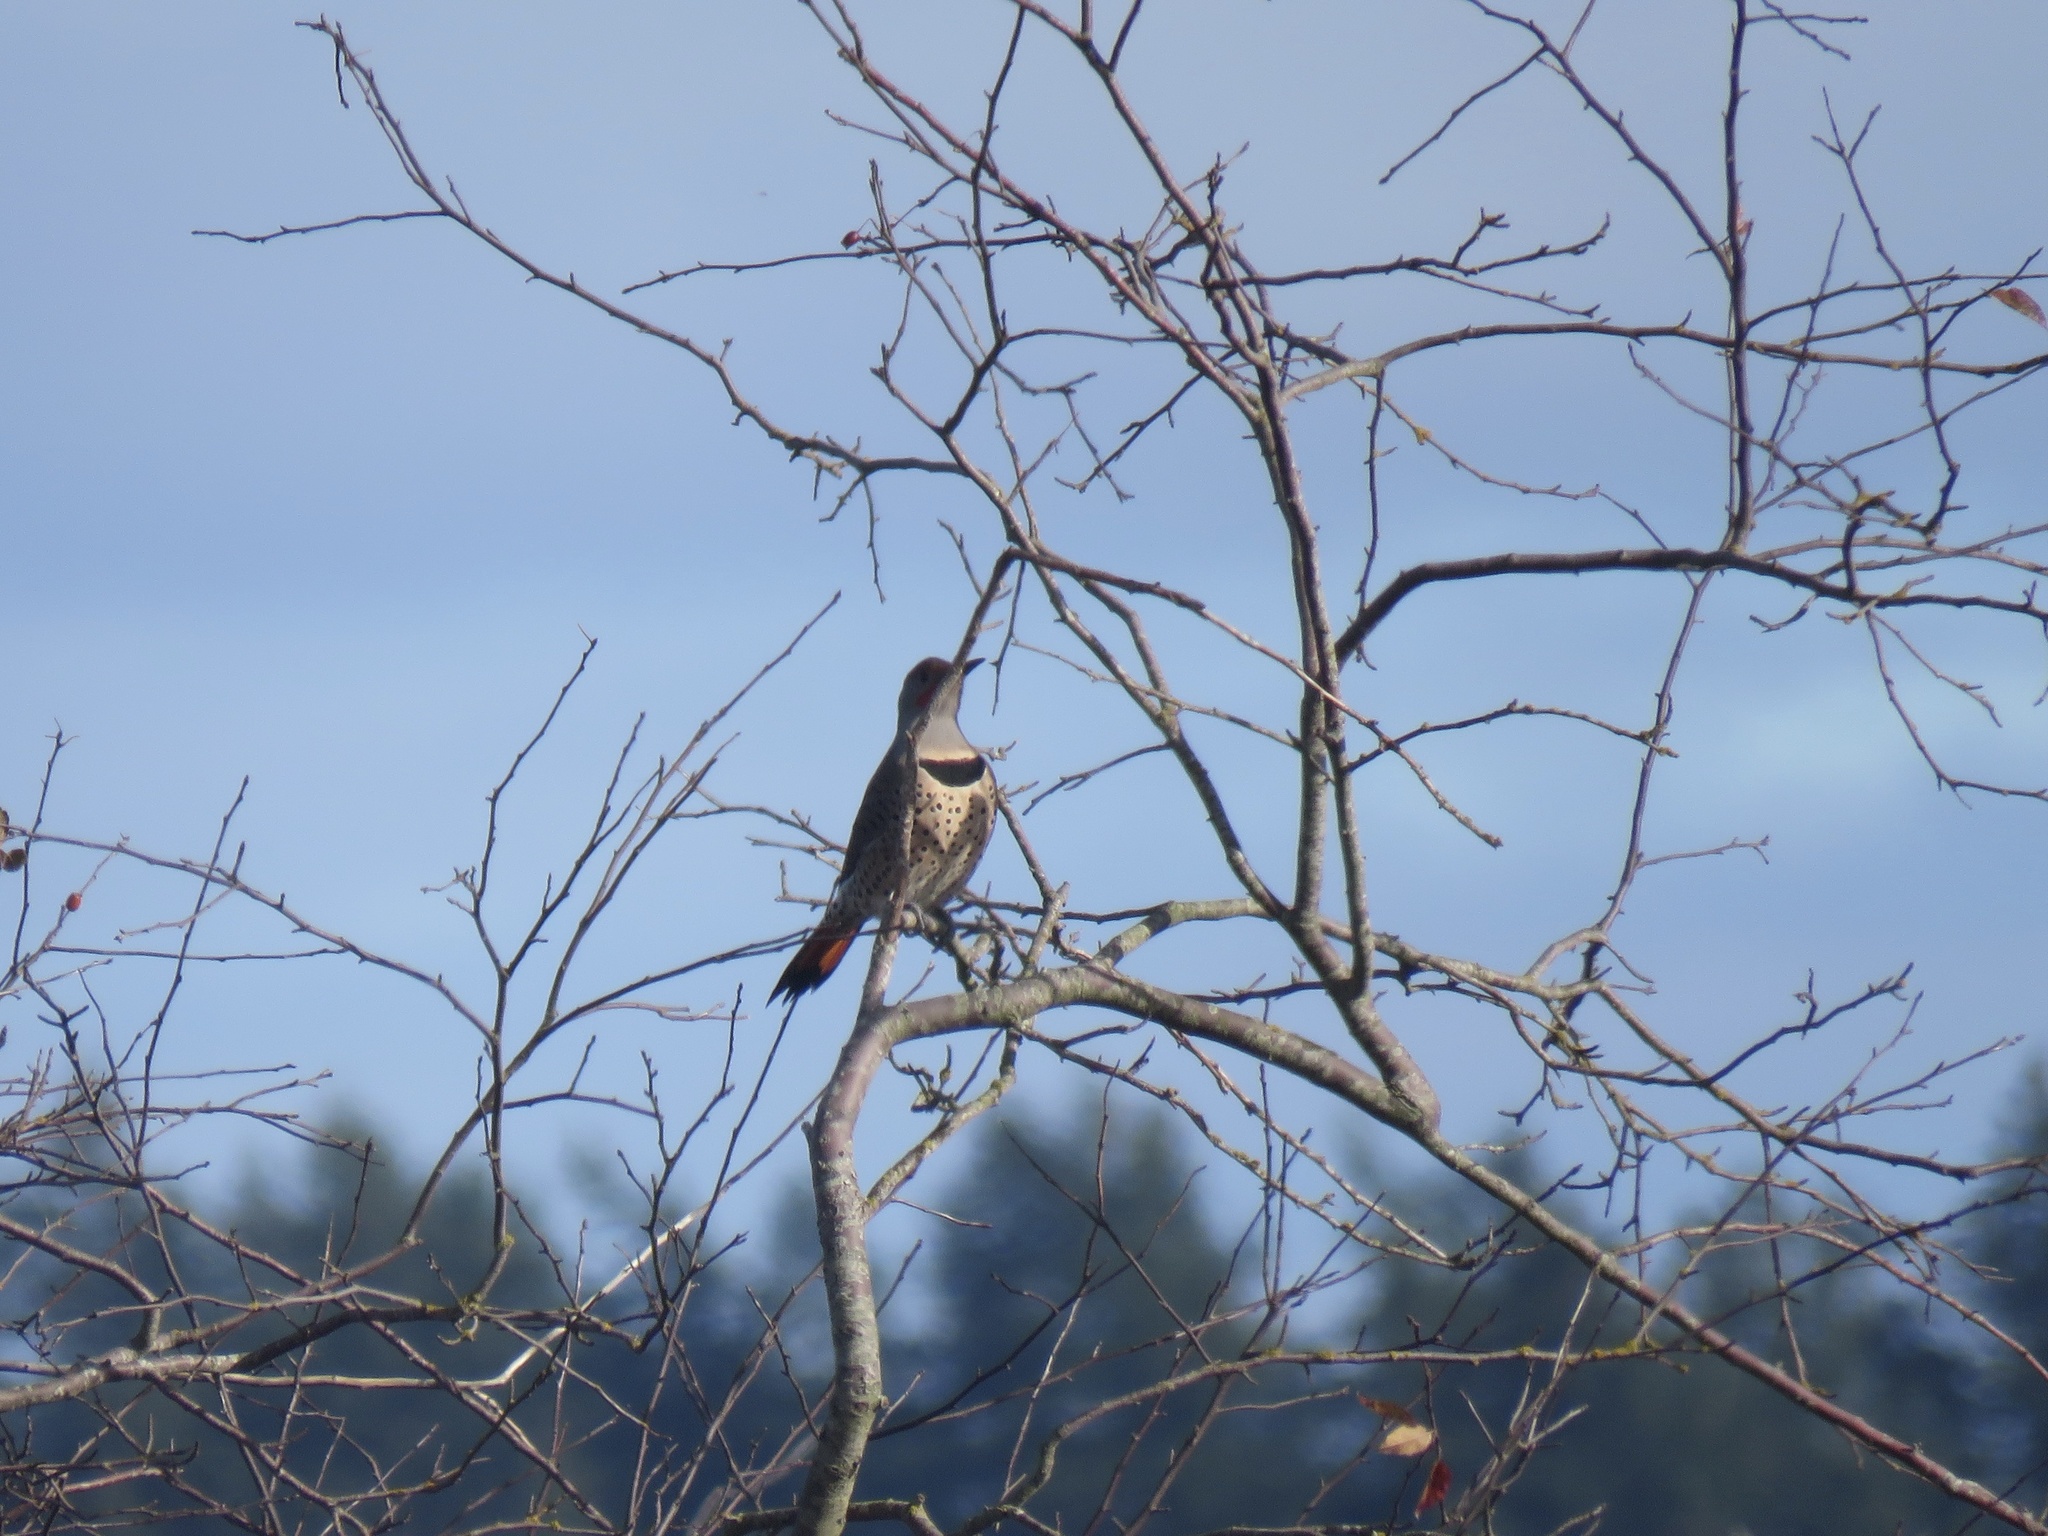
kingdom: Animalia
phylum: Chordata
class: Aves
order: Piciformes
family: Picidae
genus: Colaptes
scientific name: Colaptes auratus
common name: Northern flicker
